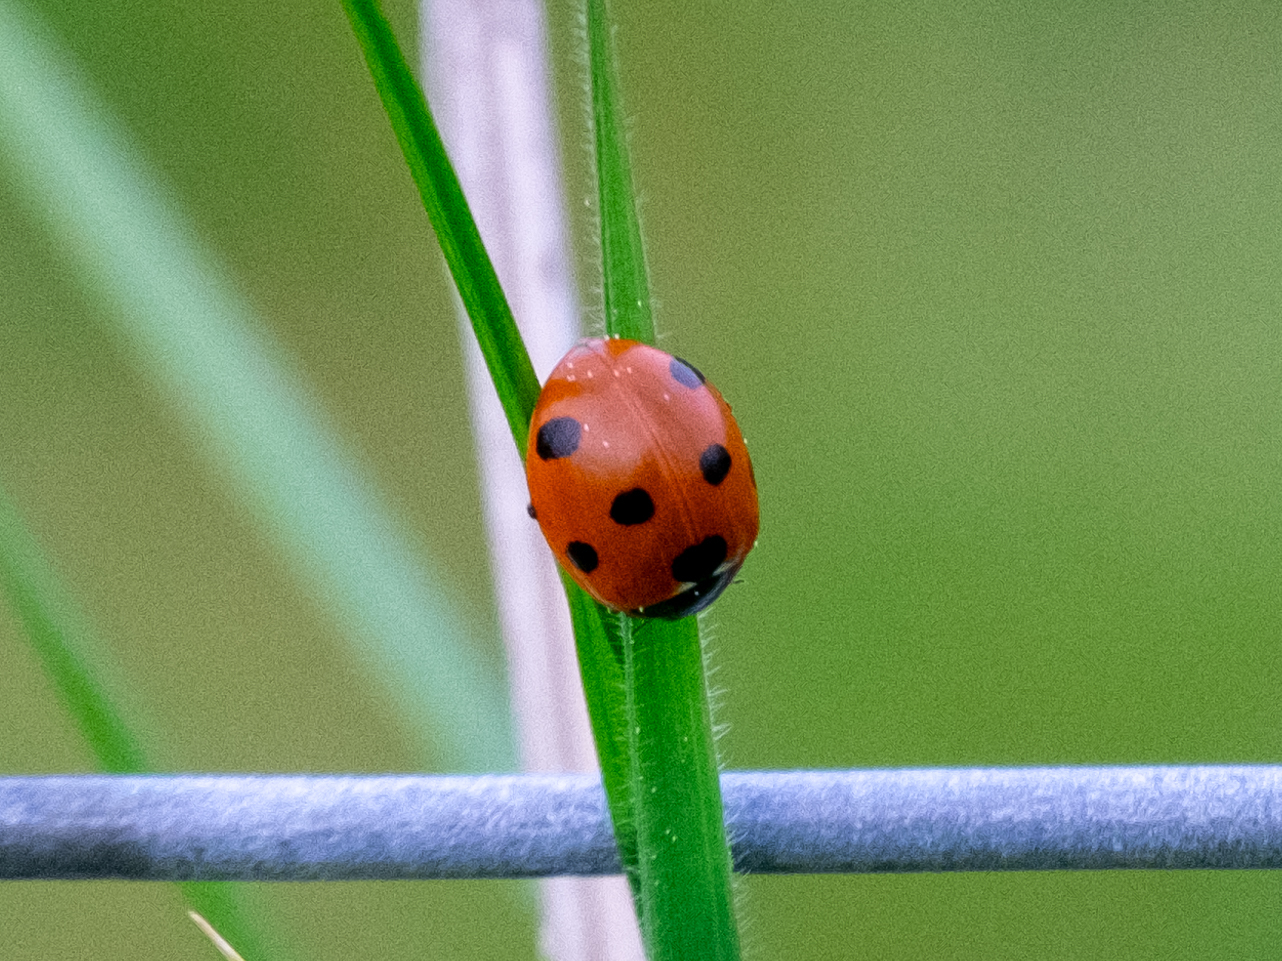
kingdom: Animalia
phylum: Arthropoda
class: Insecta
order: Coleoptera
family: Coccinellidae
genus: Coccinella
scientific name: Coccinella septempunctata
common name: Sevenspotted lady beetle
